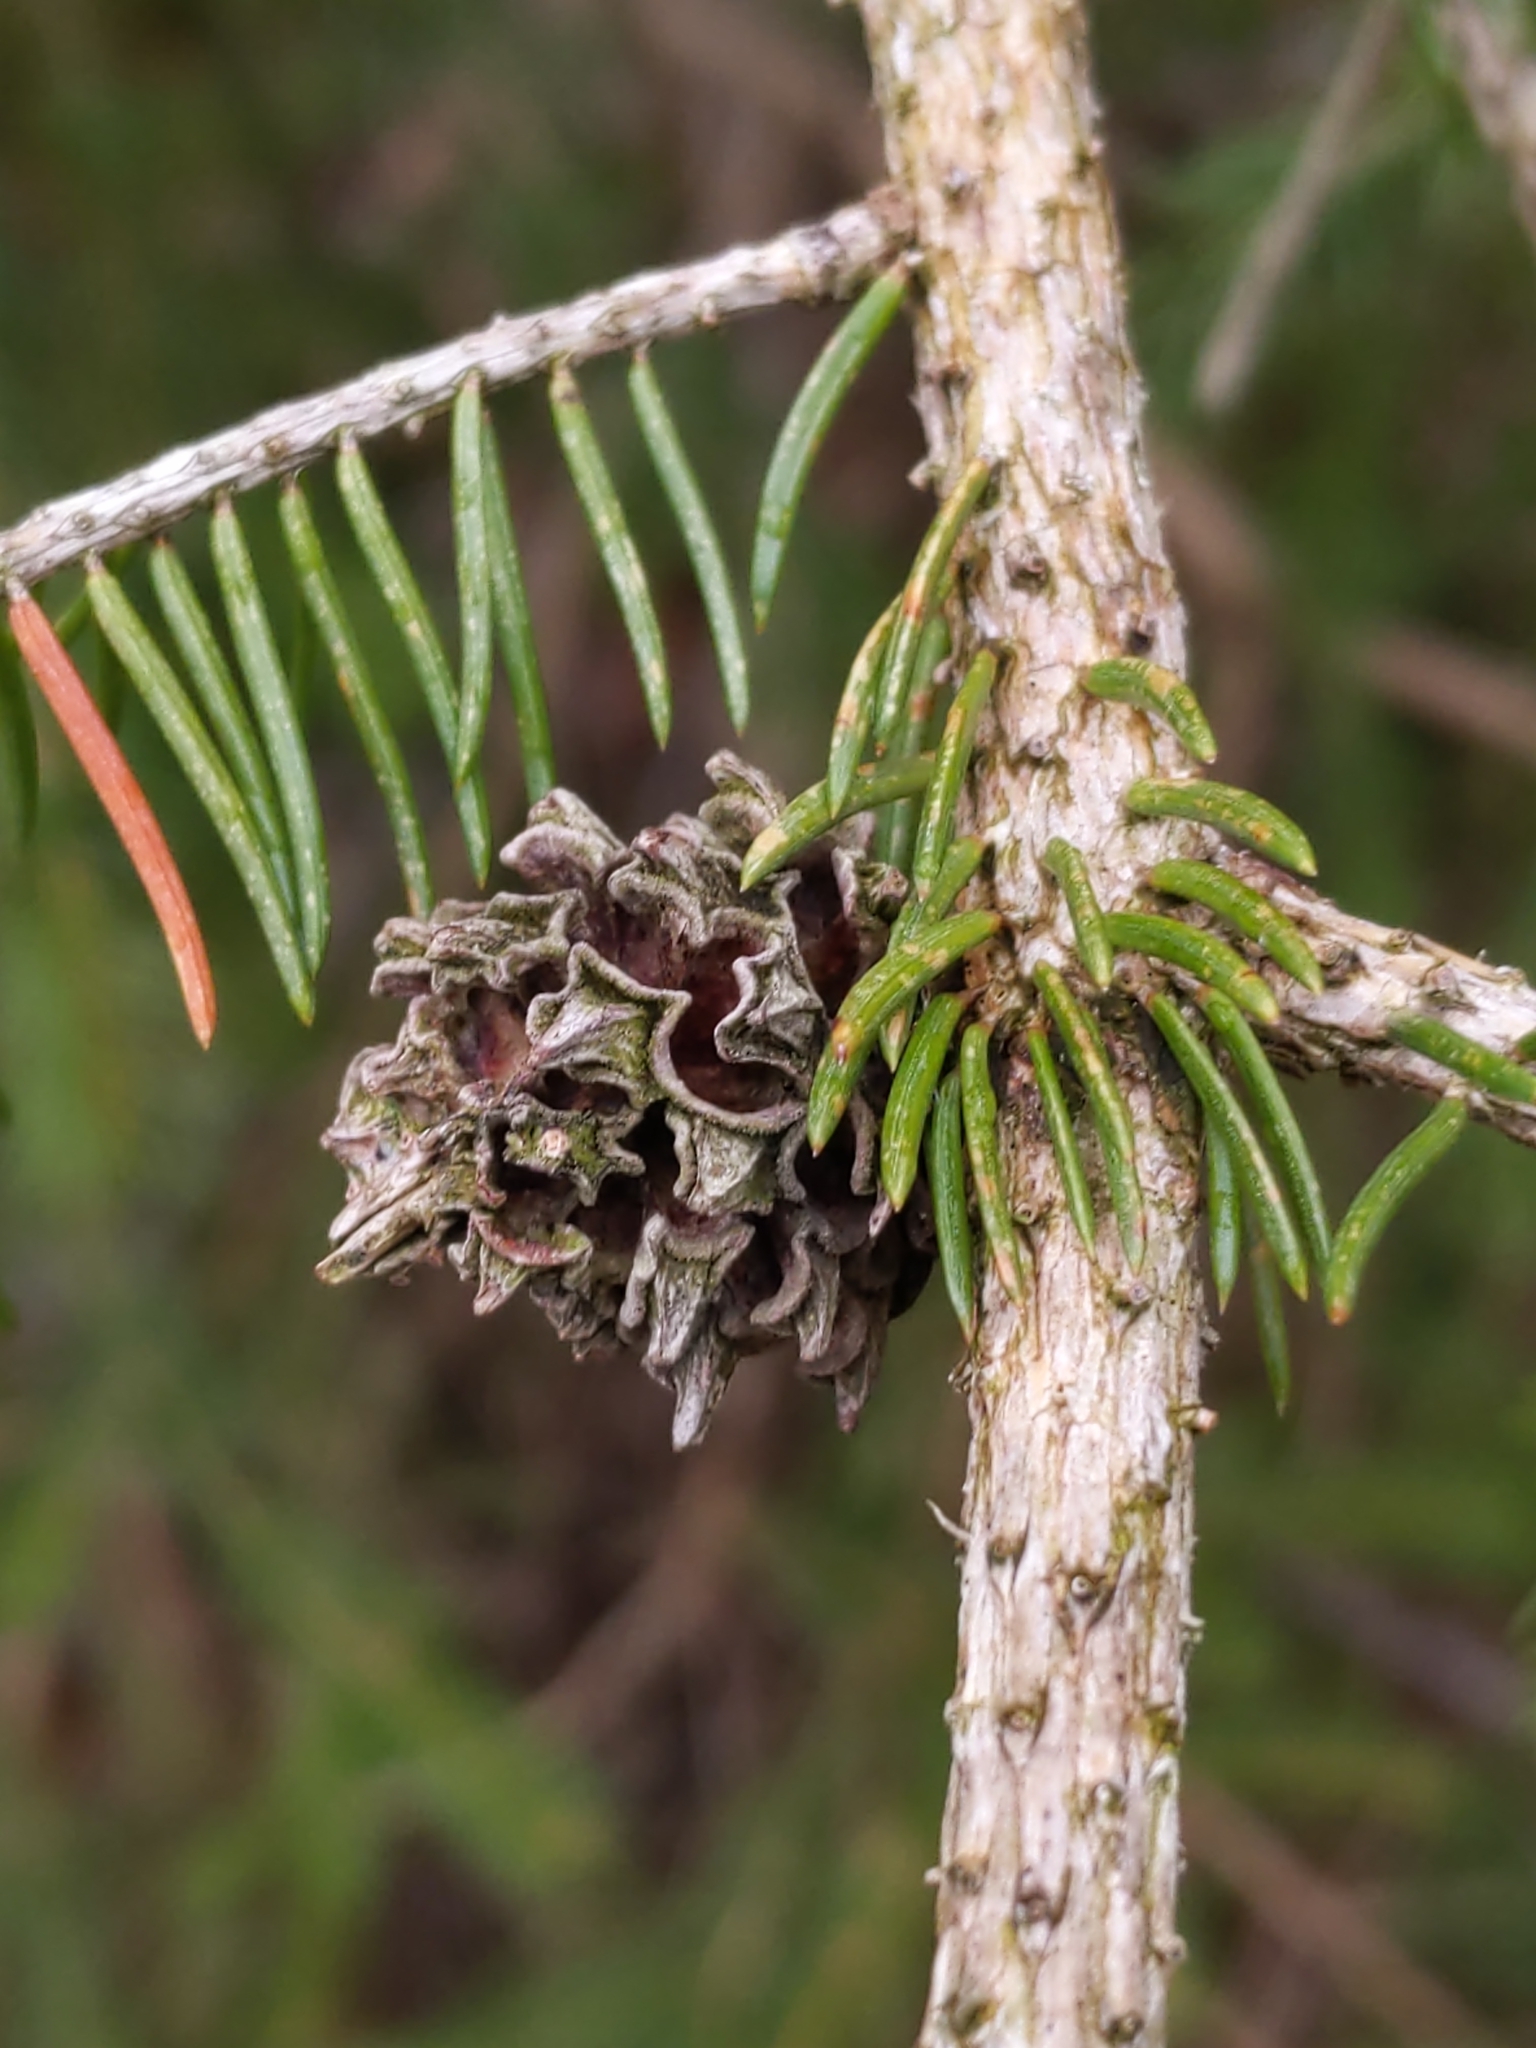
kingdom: Animalia
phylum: Arthropoda
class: Insecta
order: Hemiptera
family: Adelgidae
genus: Adelges
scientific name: Adelges abietis
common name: Eastern spruce gall adelgid
